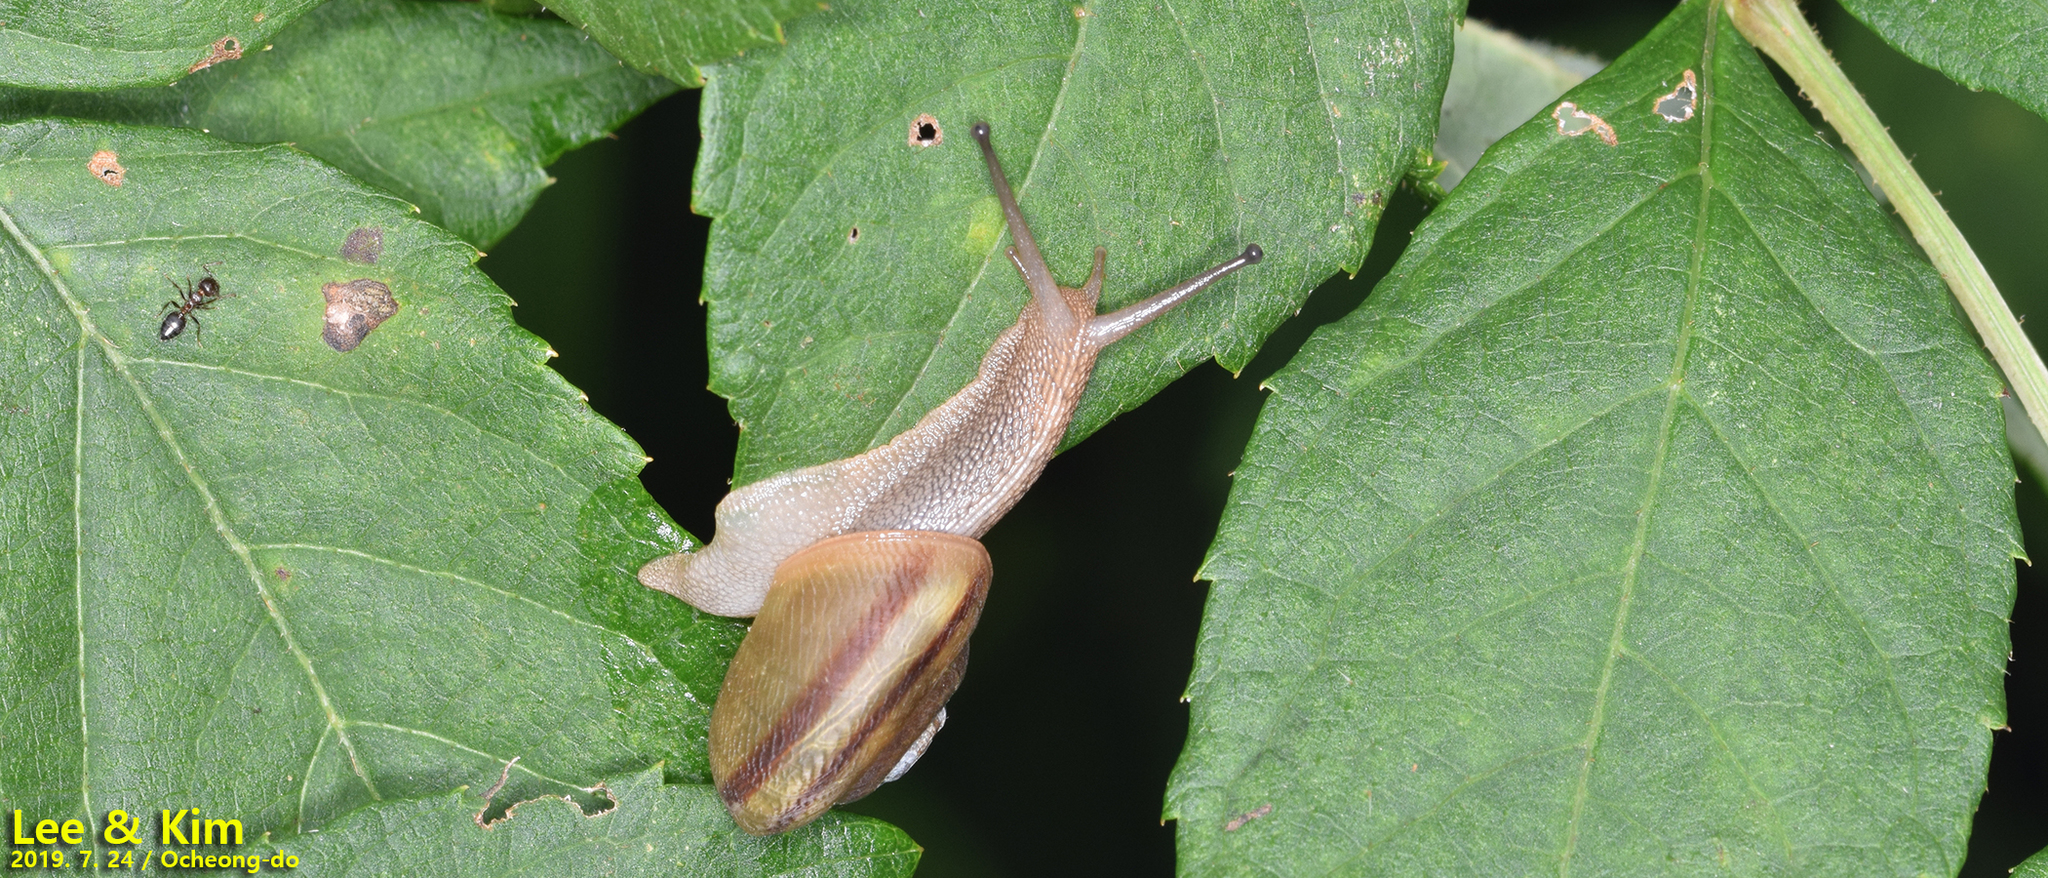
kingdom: Animalia
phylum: Mollusca
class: Gastropoda
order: Stylommatophora
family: Camaenidae
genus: Nesiohelix
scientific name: Nesiohelix samarangae
